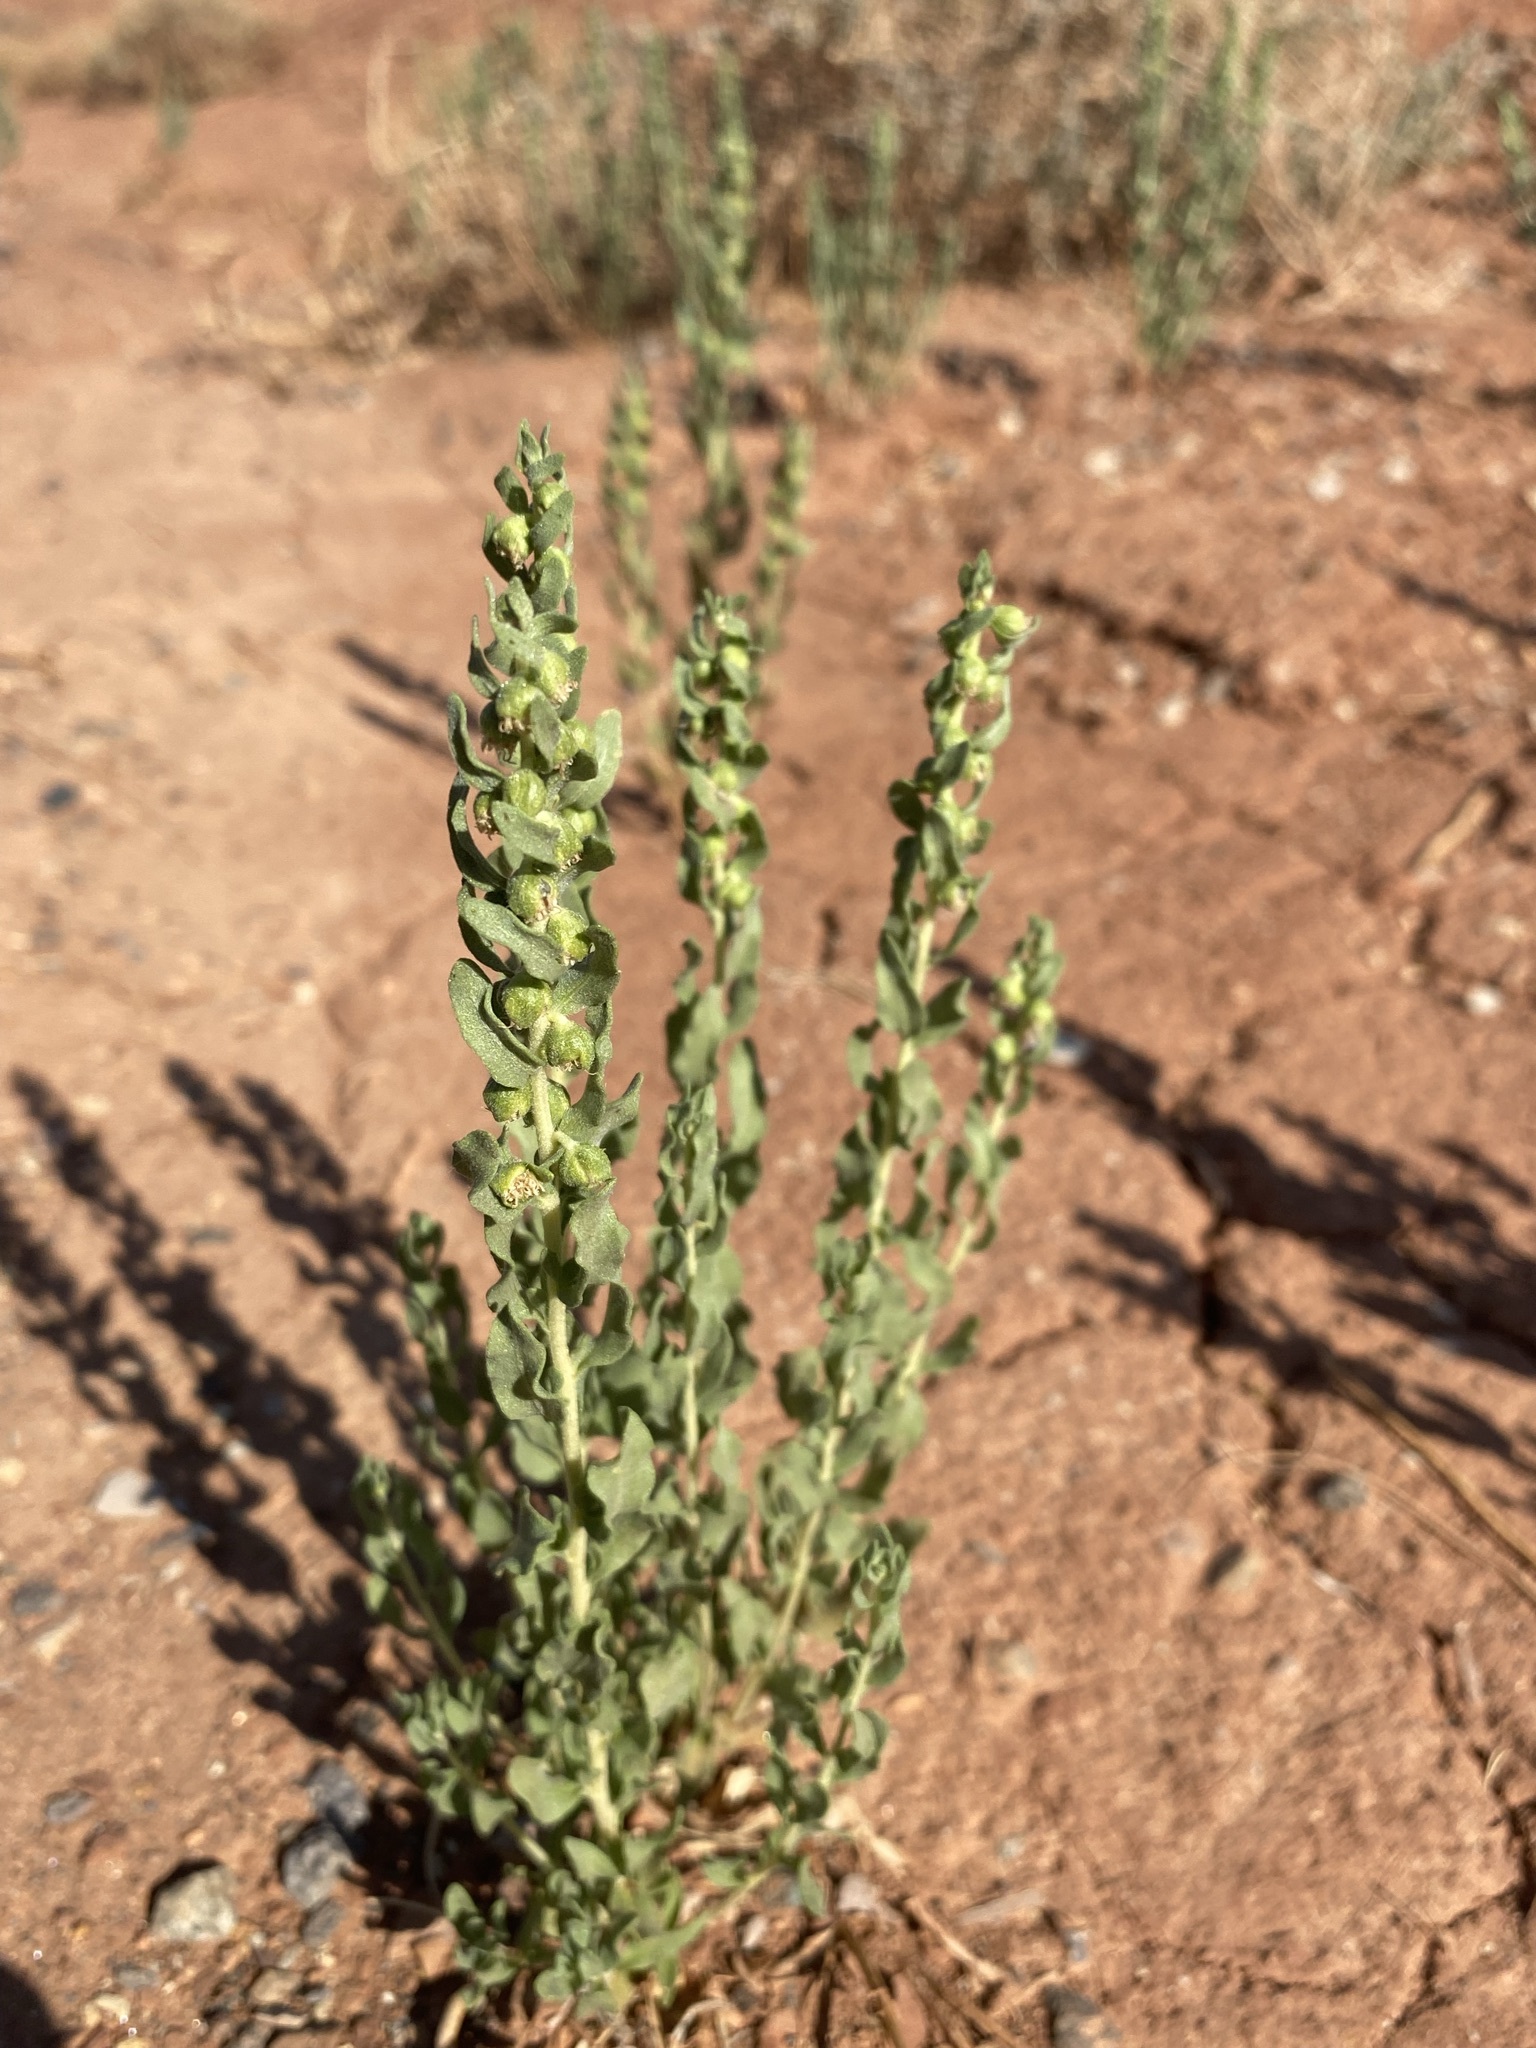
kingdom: Plantae
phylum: Tracheophyta
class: Magnoliopsida
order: Asterales
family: Asteraceae
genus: Iva
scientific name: Iva axillaris
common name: Poverty sumpweed
